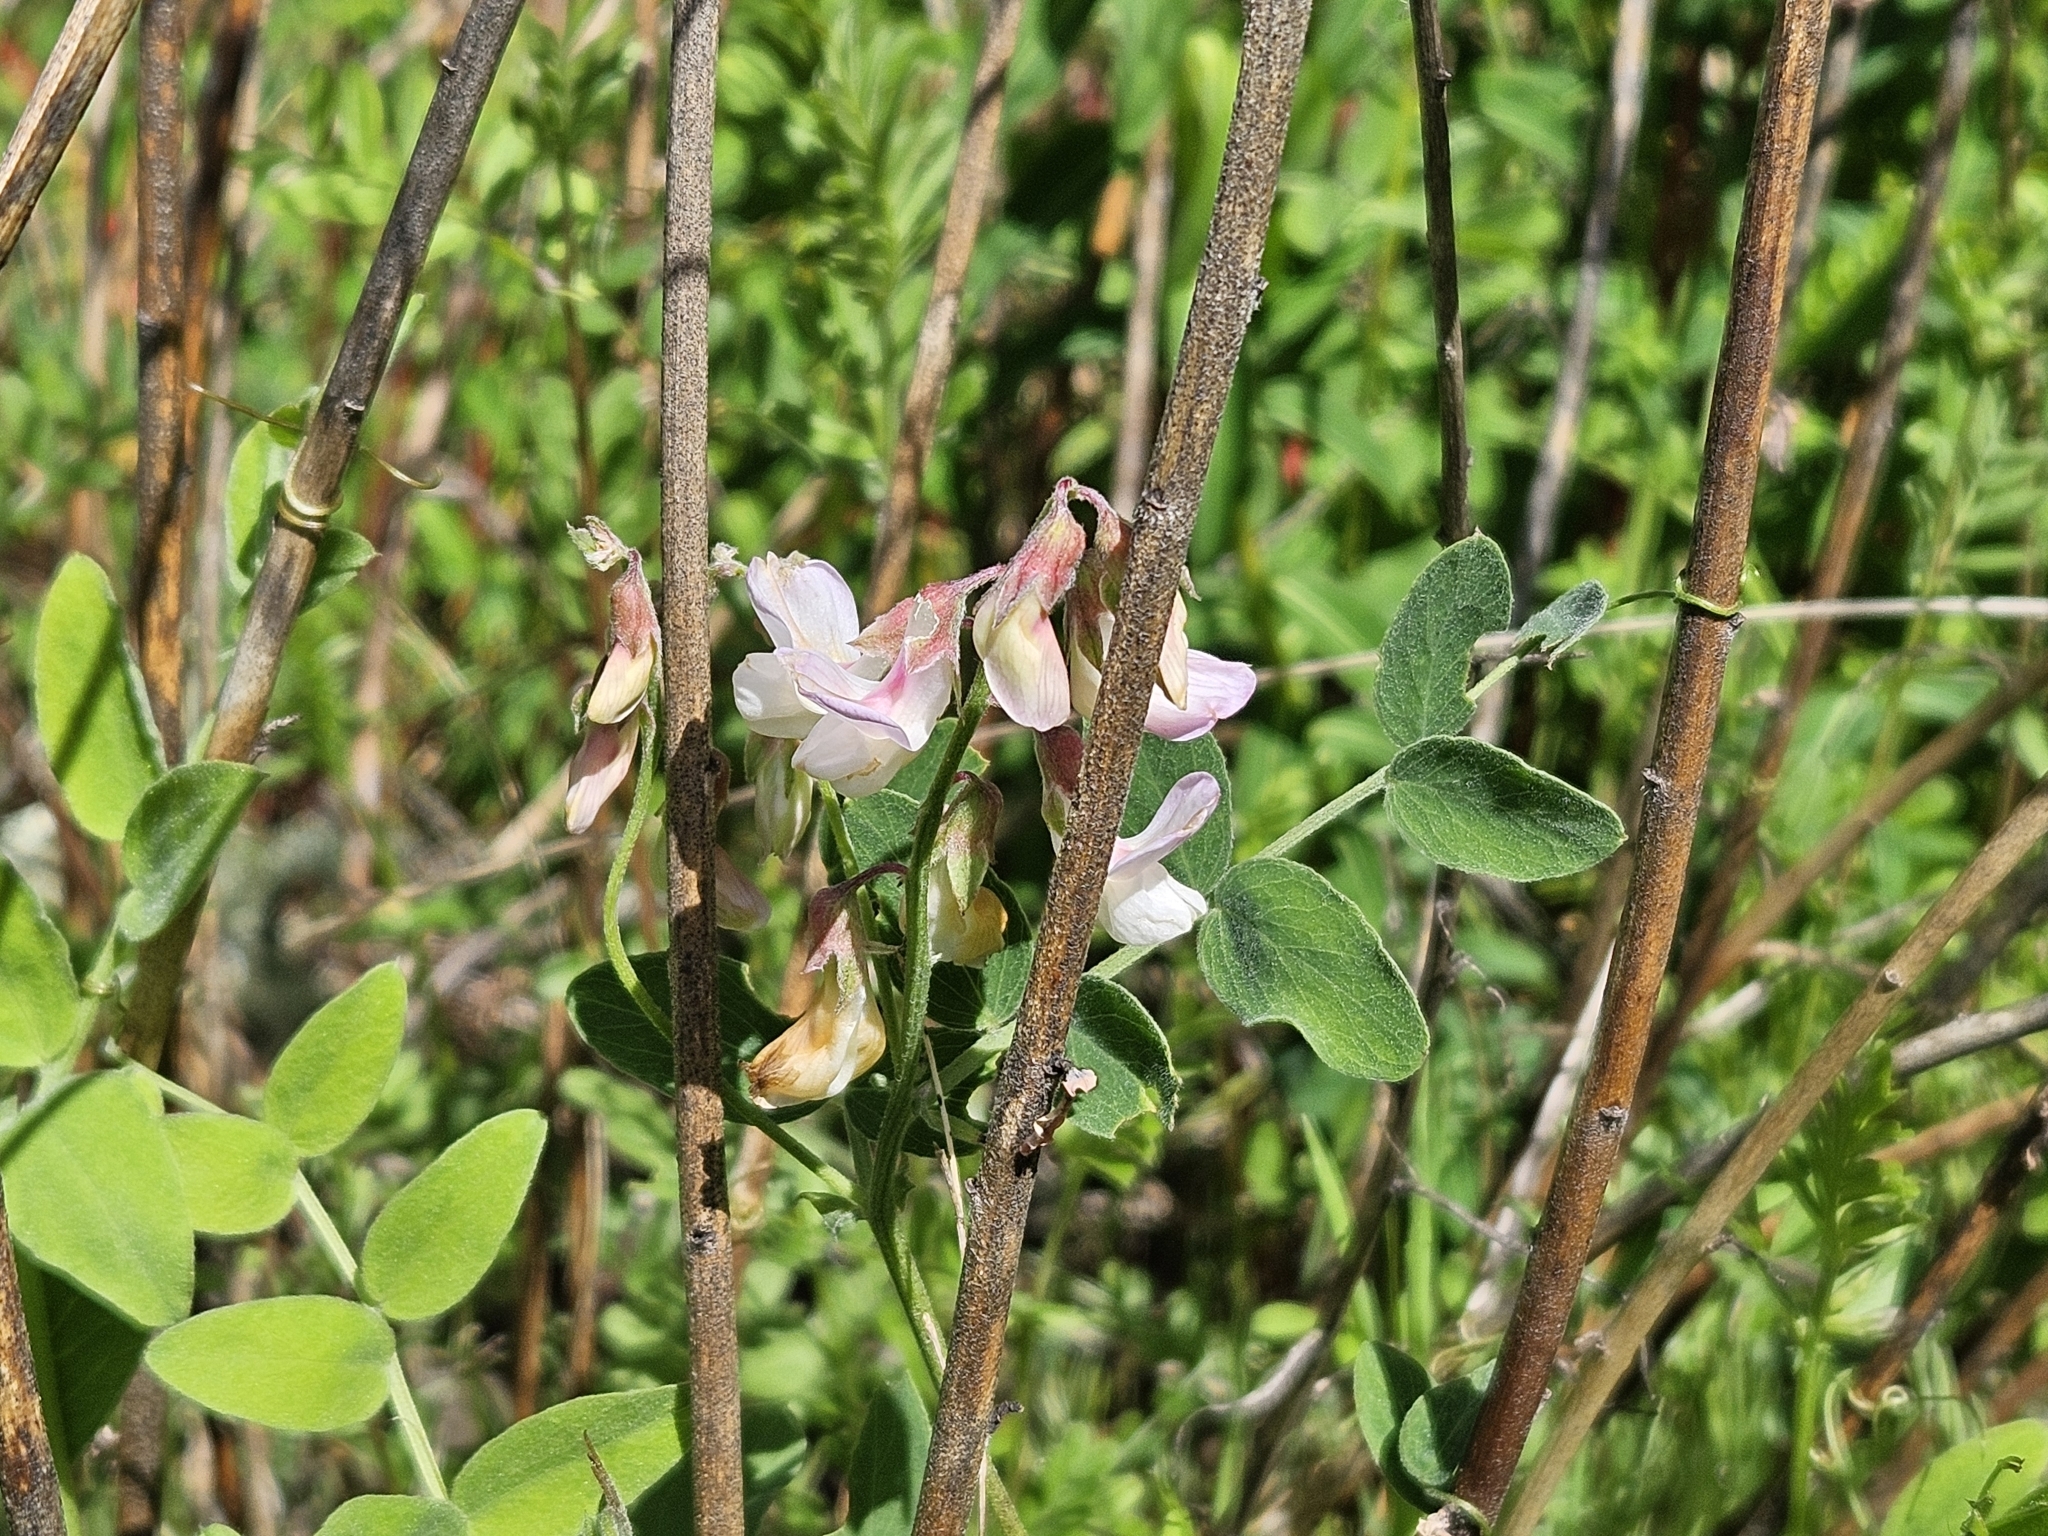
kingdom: Plantae
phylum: Tracheophyta
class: Magnoliopsida
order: Fabales
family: Fabaceae
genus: Lathyrus
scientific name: Lathyrus vestitus
